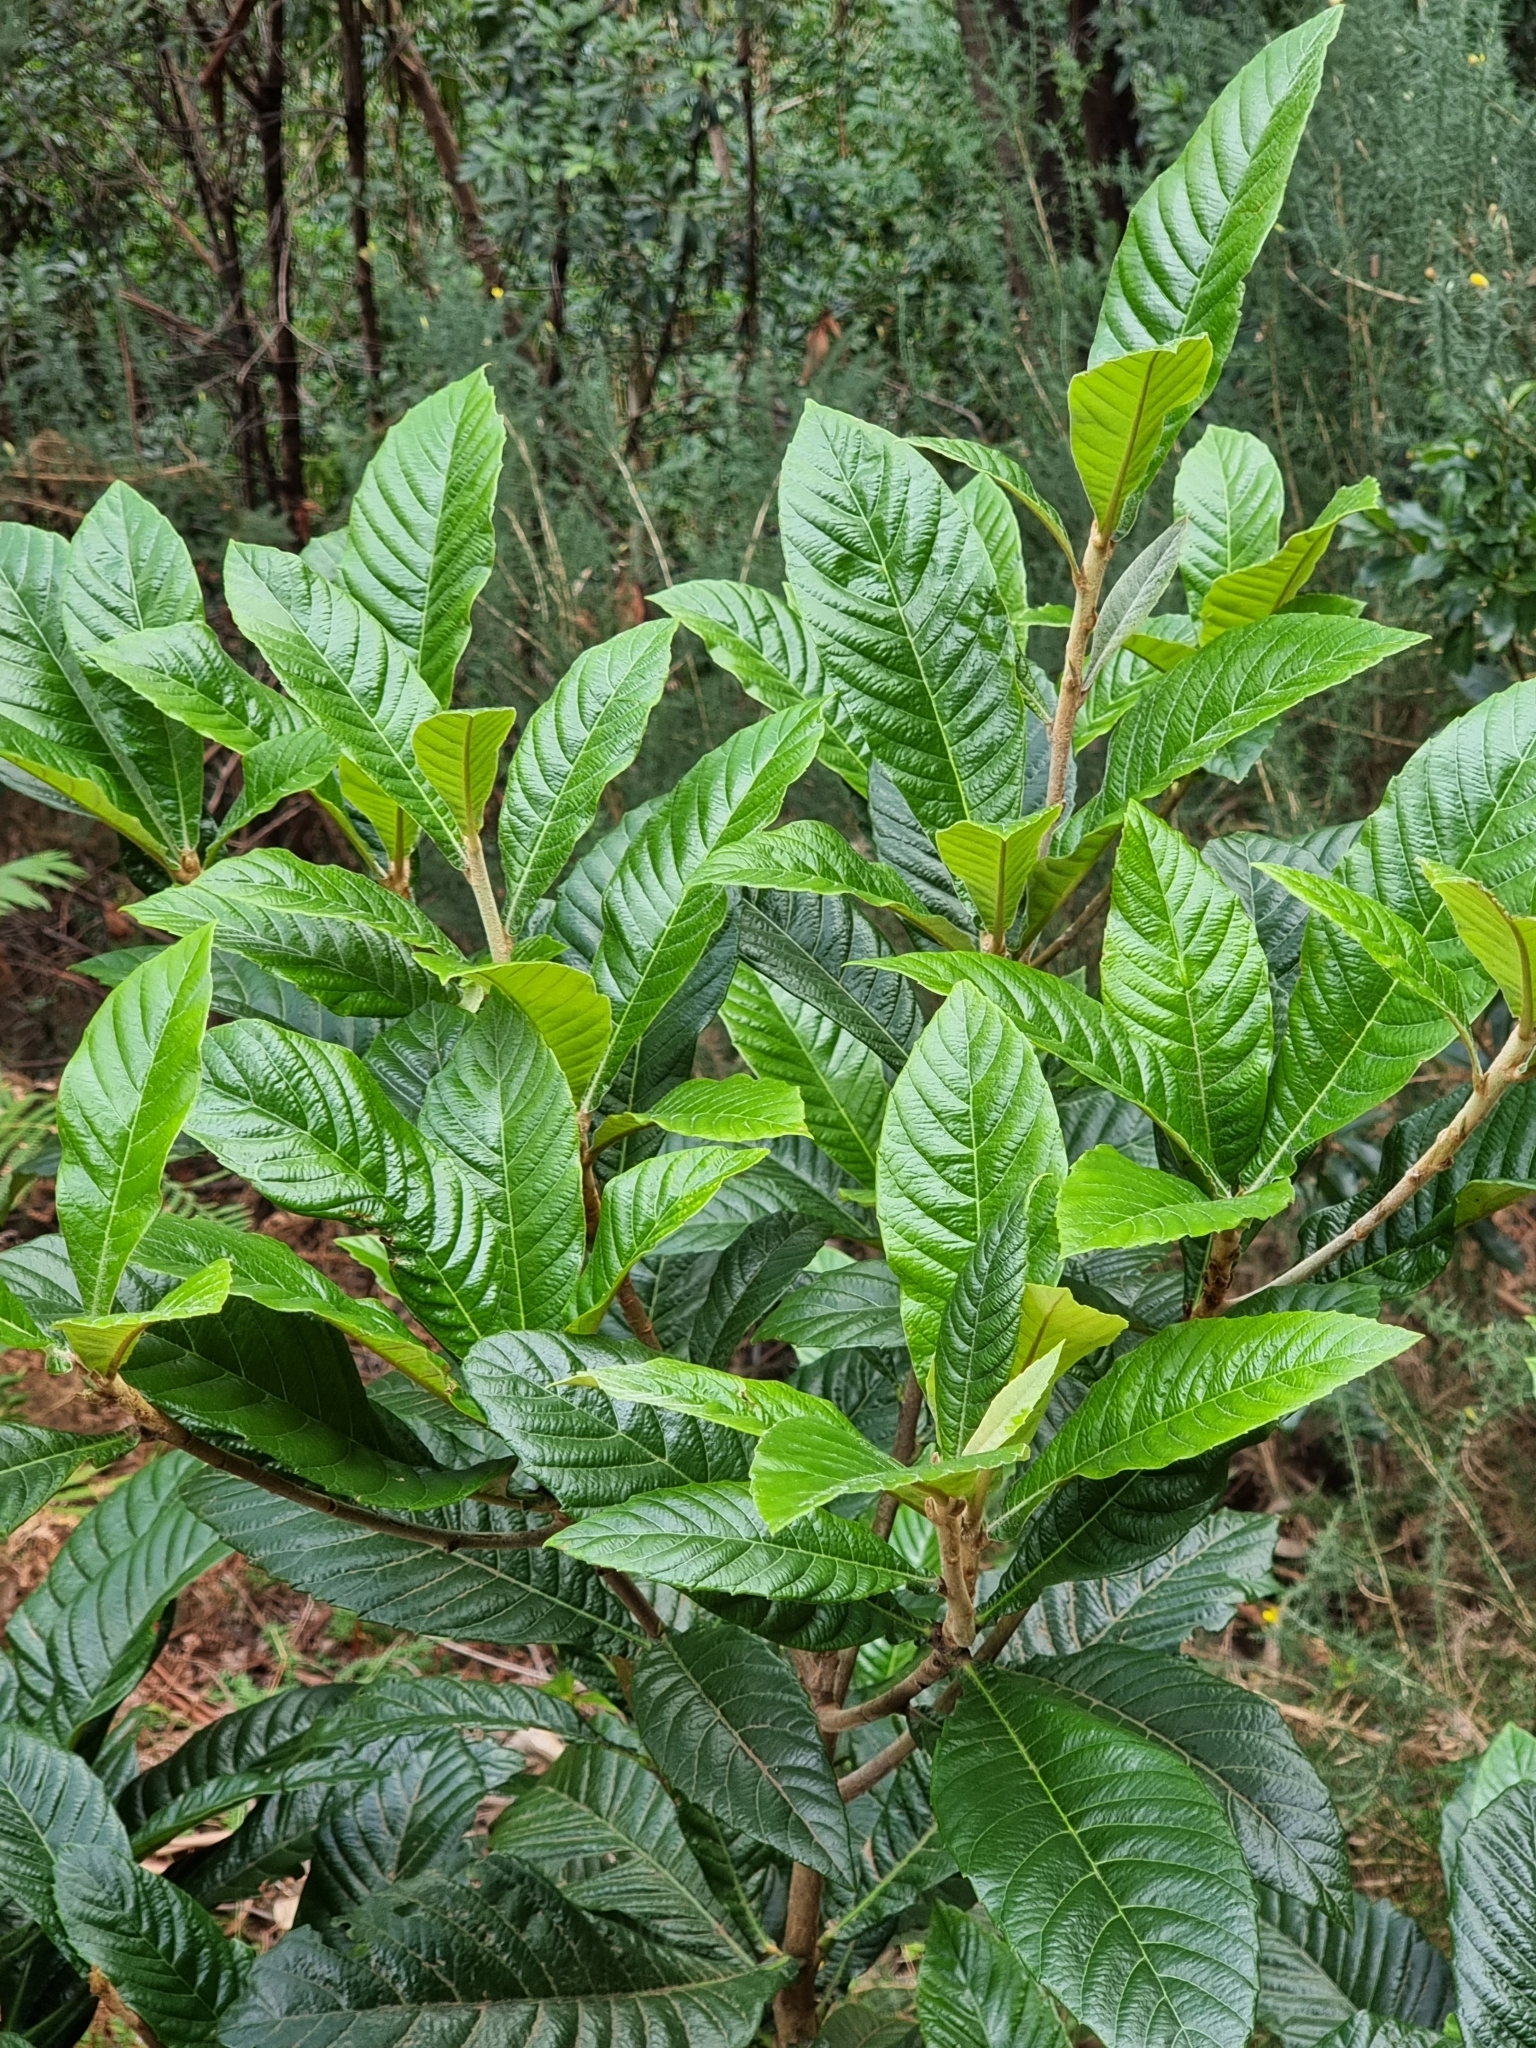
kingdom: Plantae
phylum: Tracheophyta
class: Magnoliopsida
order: Rosales
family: Rosaceae
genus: Rhaphiolepis
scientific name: Rhaphiolepis bibas
